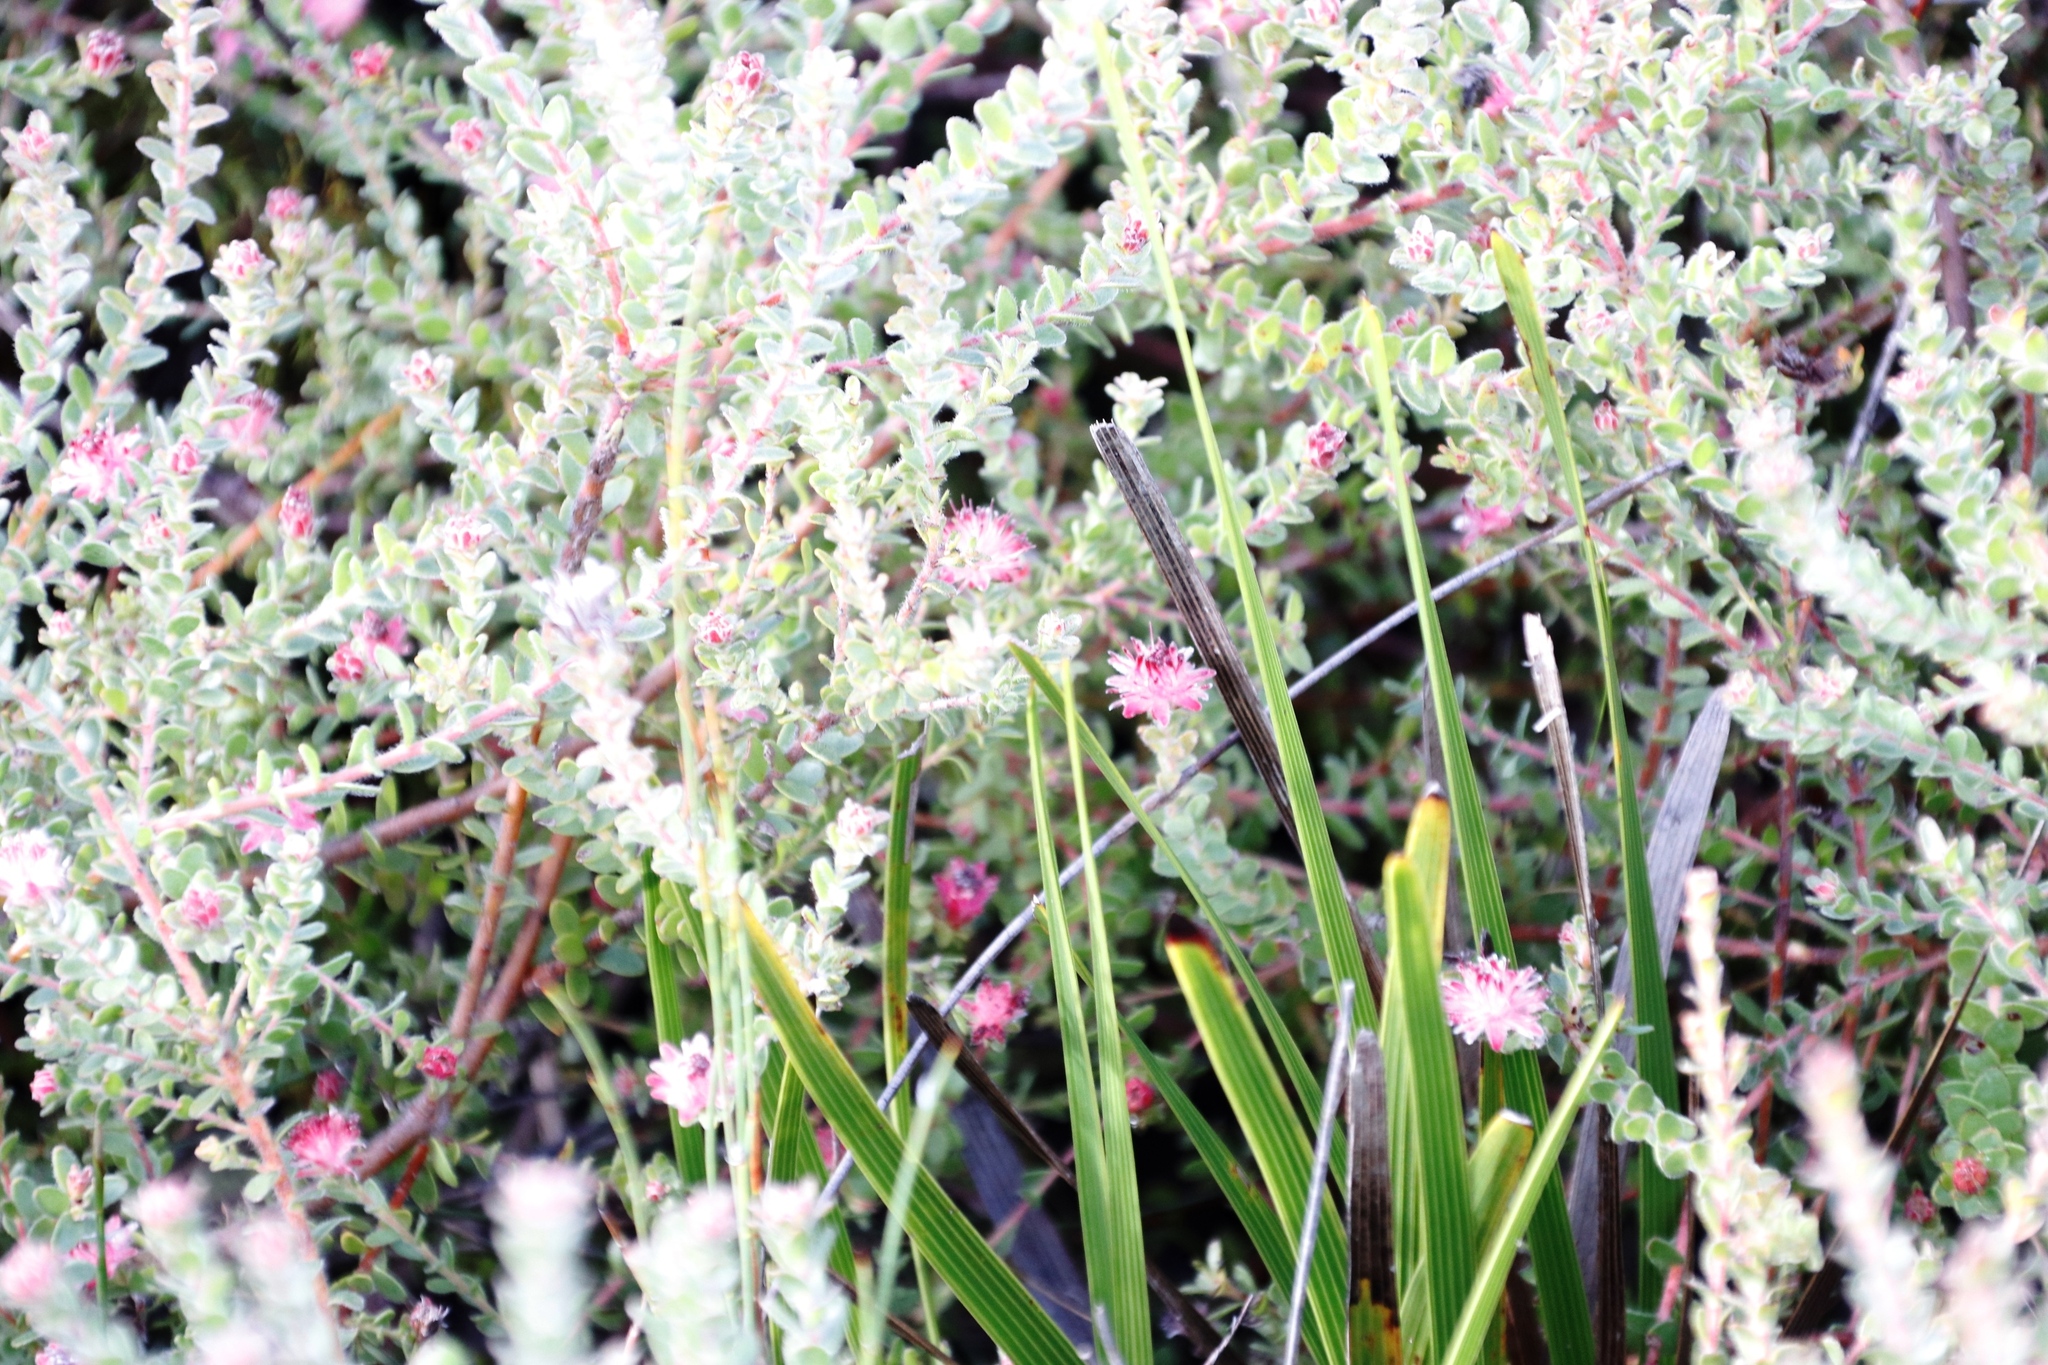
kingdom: Plantae
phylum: Tracheophyta
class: Magnoliopsida
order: Proteales
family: Proteaceae
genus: Diastella
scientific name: Diastella divaricata
